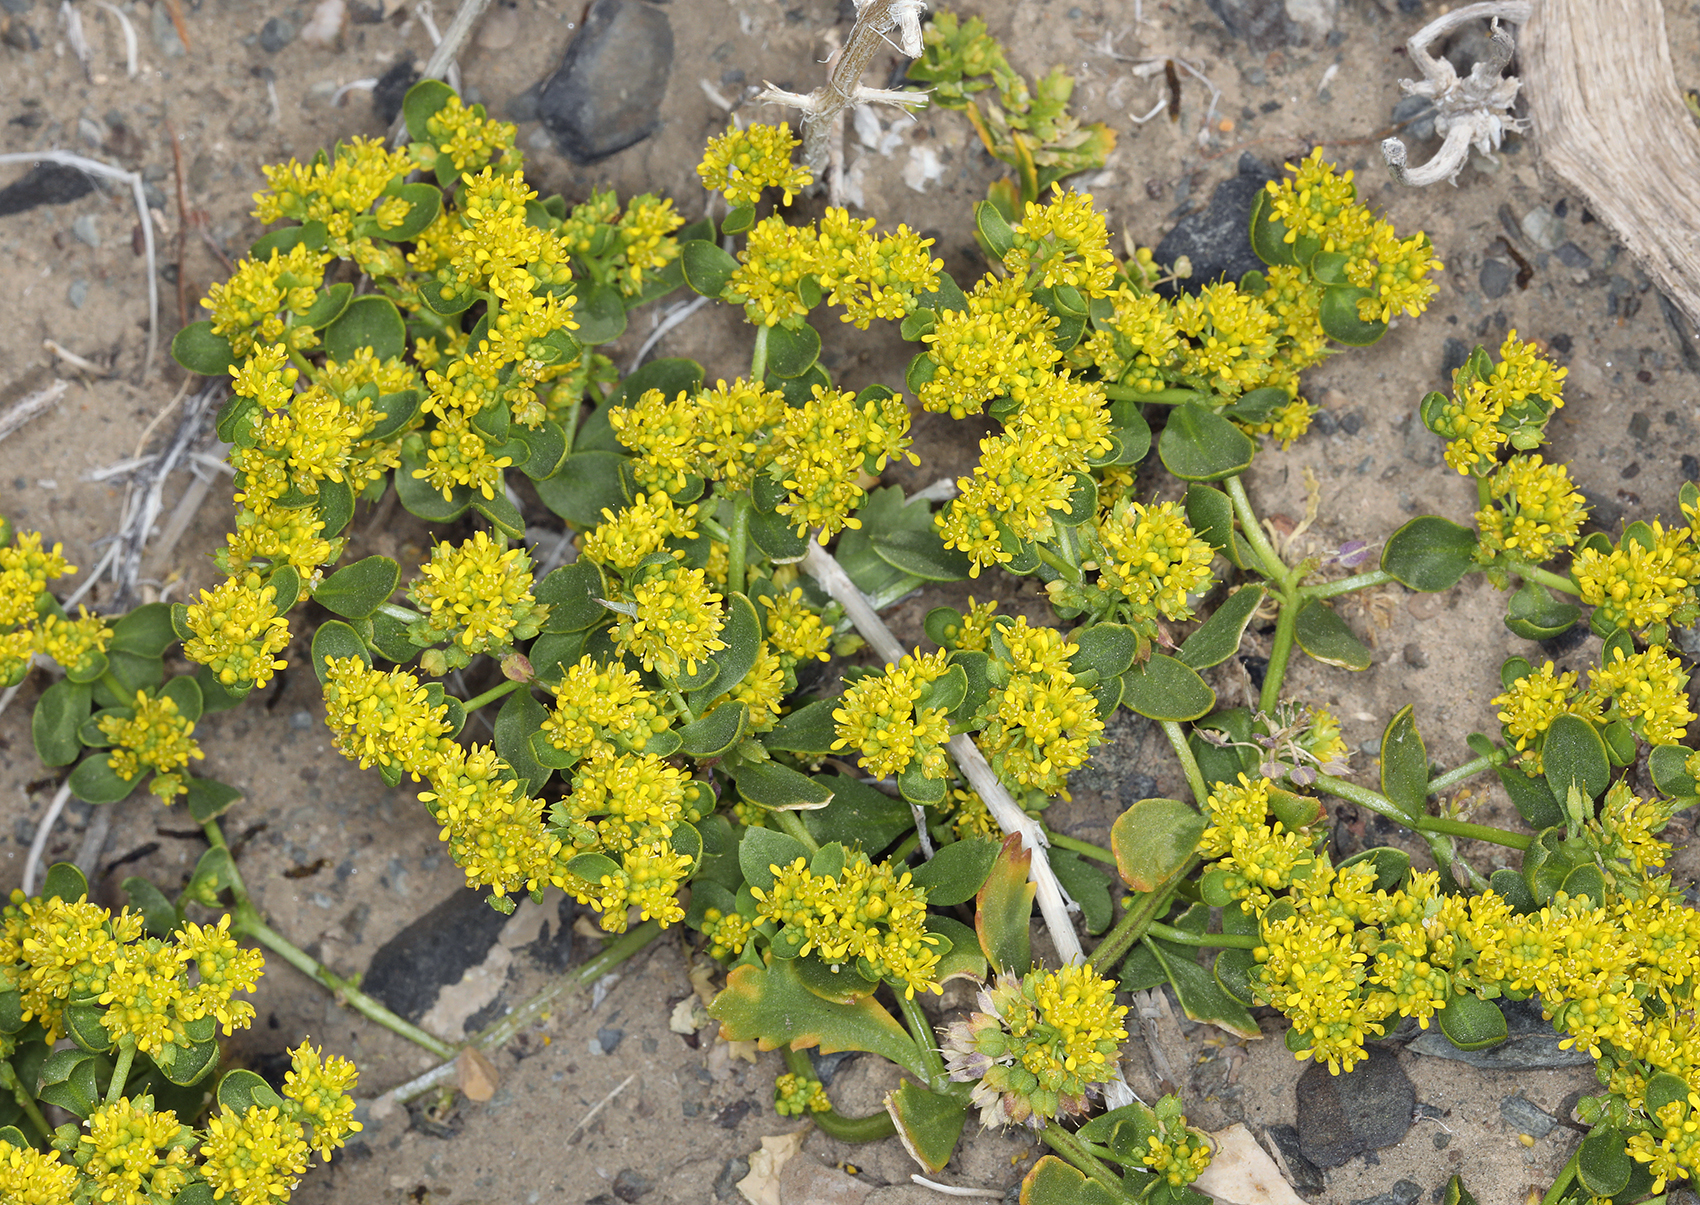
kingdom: Plantae
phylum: Tracheophyta
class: Magnoliopsida
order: Brassicales
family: Brassicaceae
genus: Lepidium
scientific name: Lepidium flavum
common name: Yellow pepperwort
